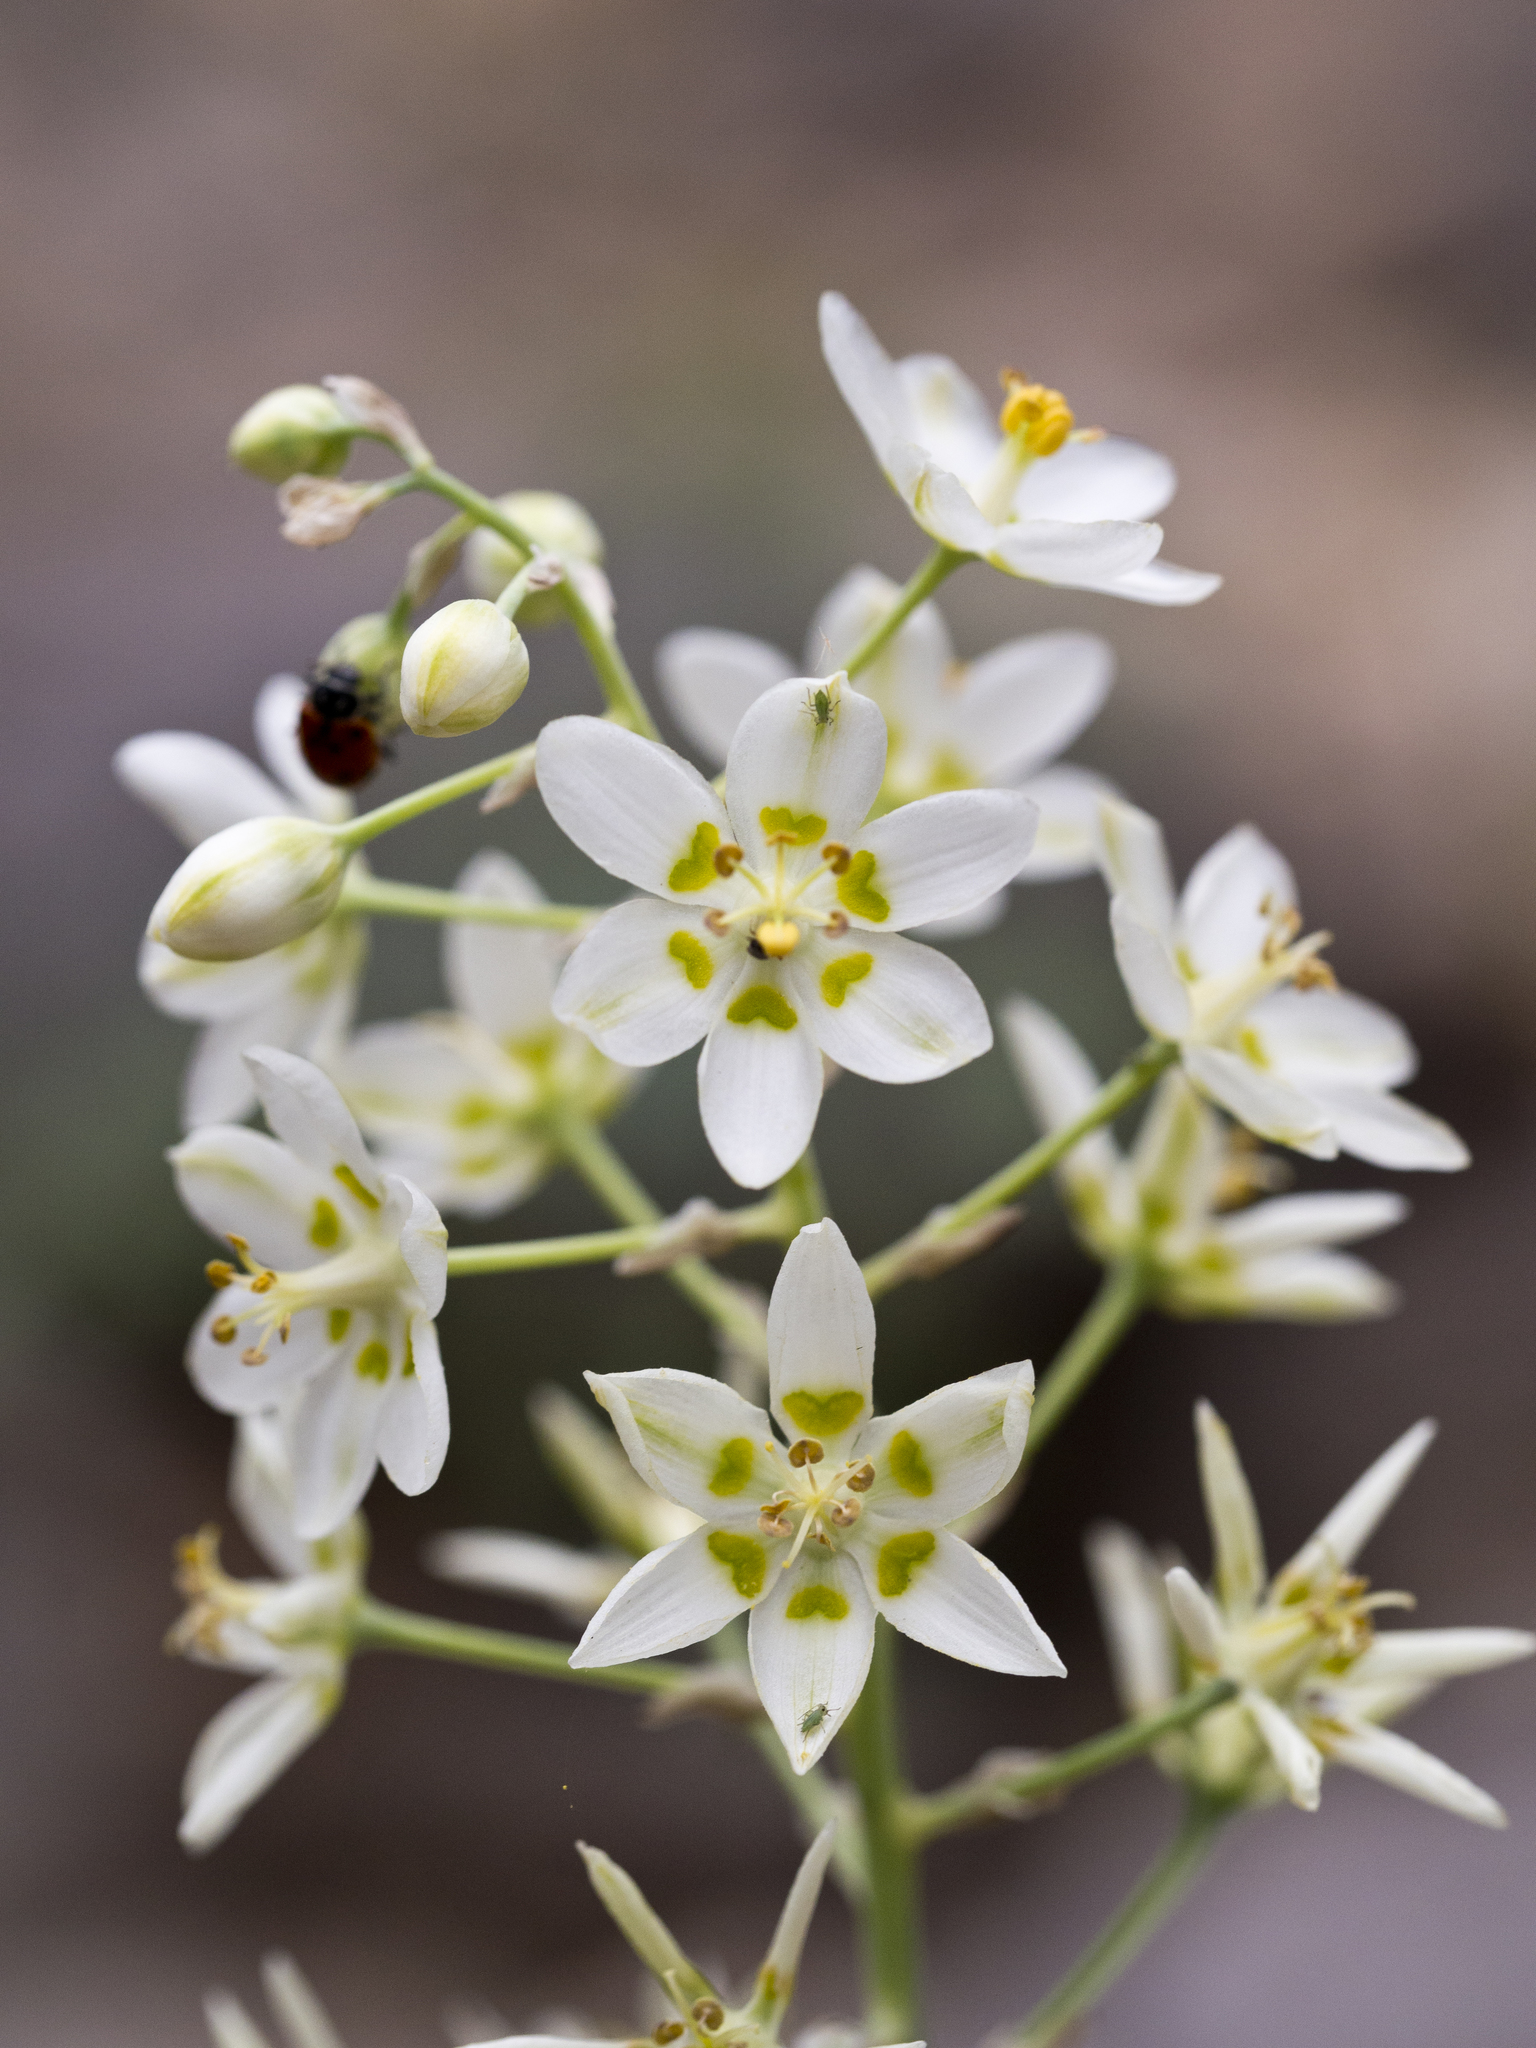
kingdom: Plantae
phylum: Tracheophyta
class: Liliopsida
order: Liliales
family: Melanthiaceae
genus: Anticlea
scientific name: Anticlea elegans
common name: Mountain death camas
